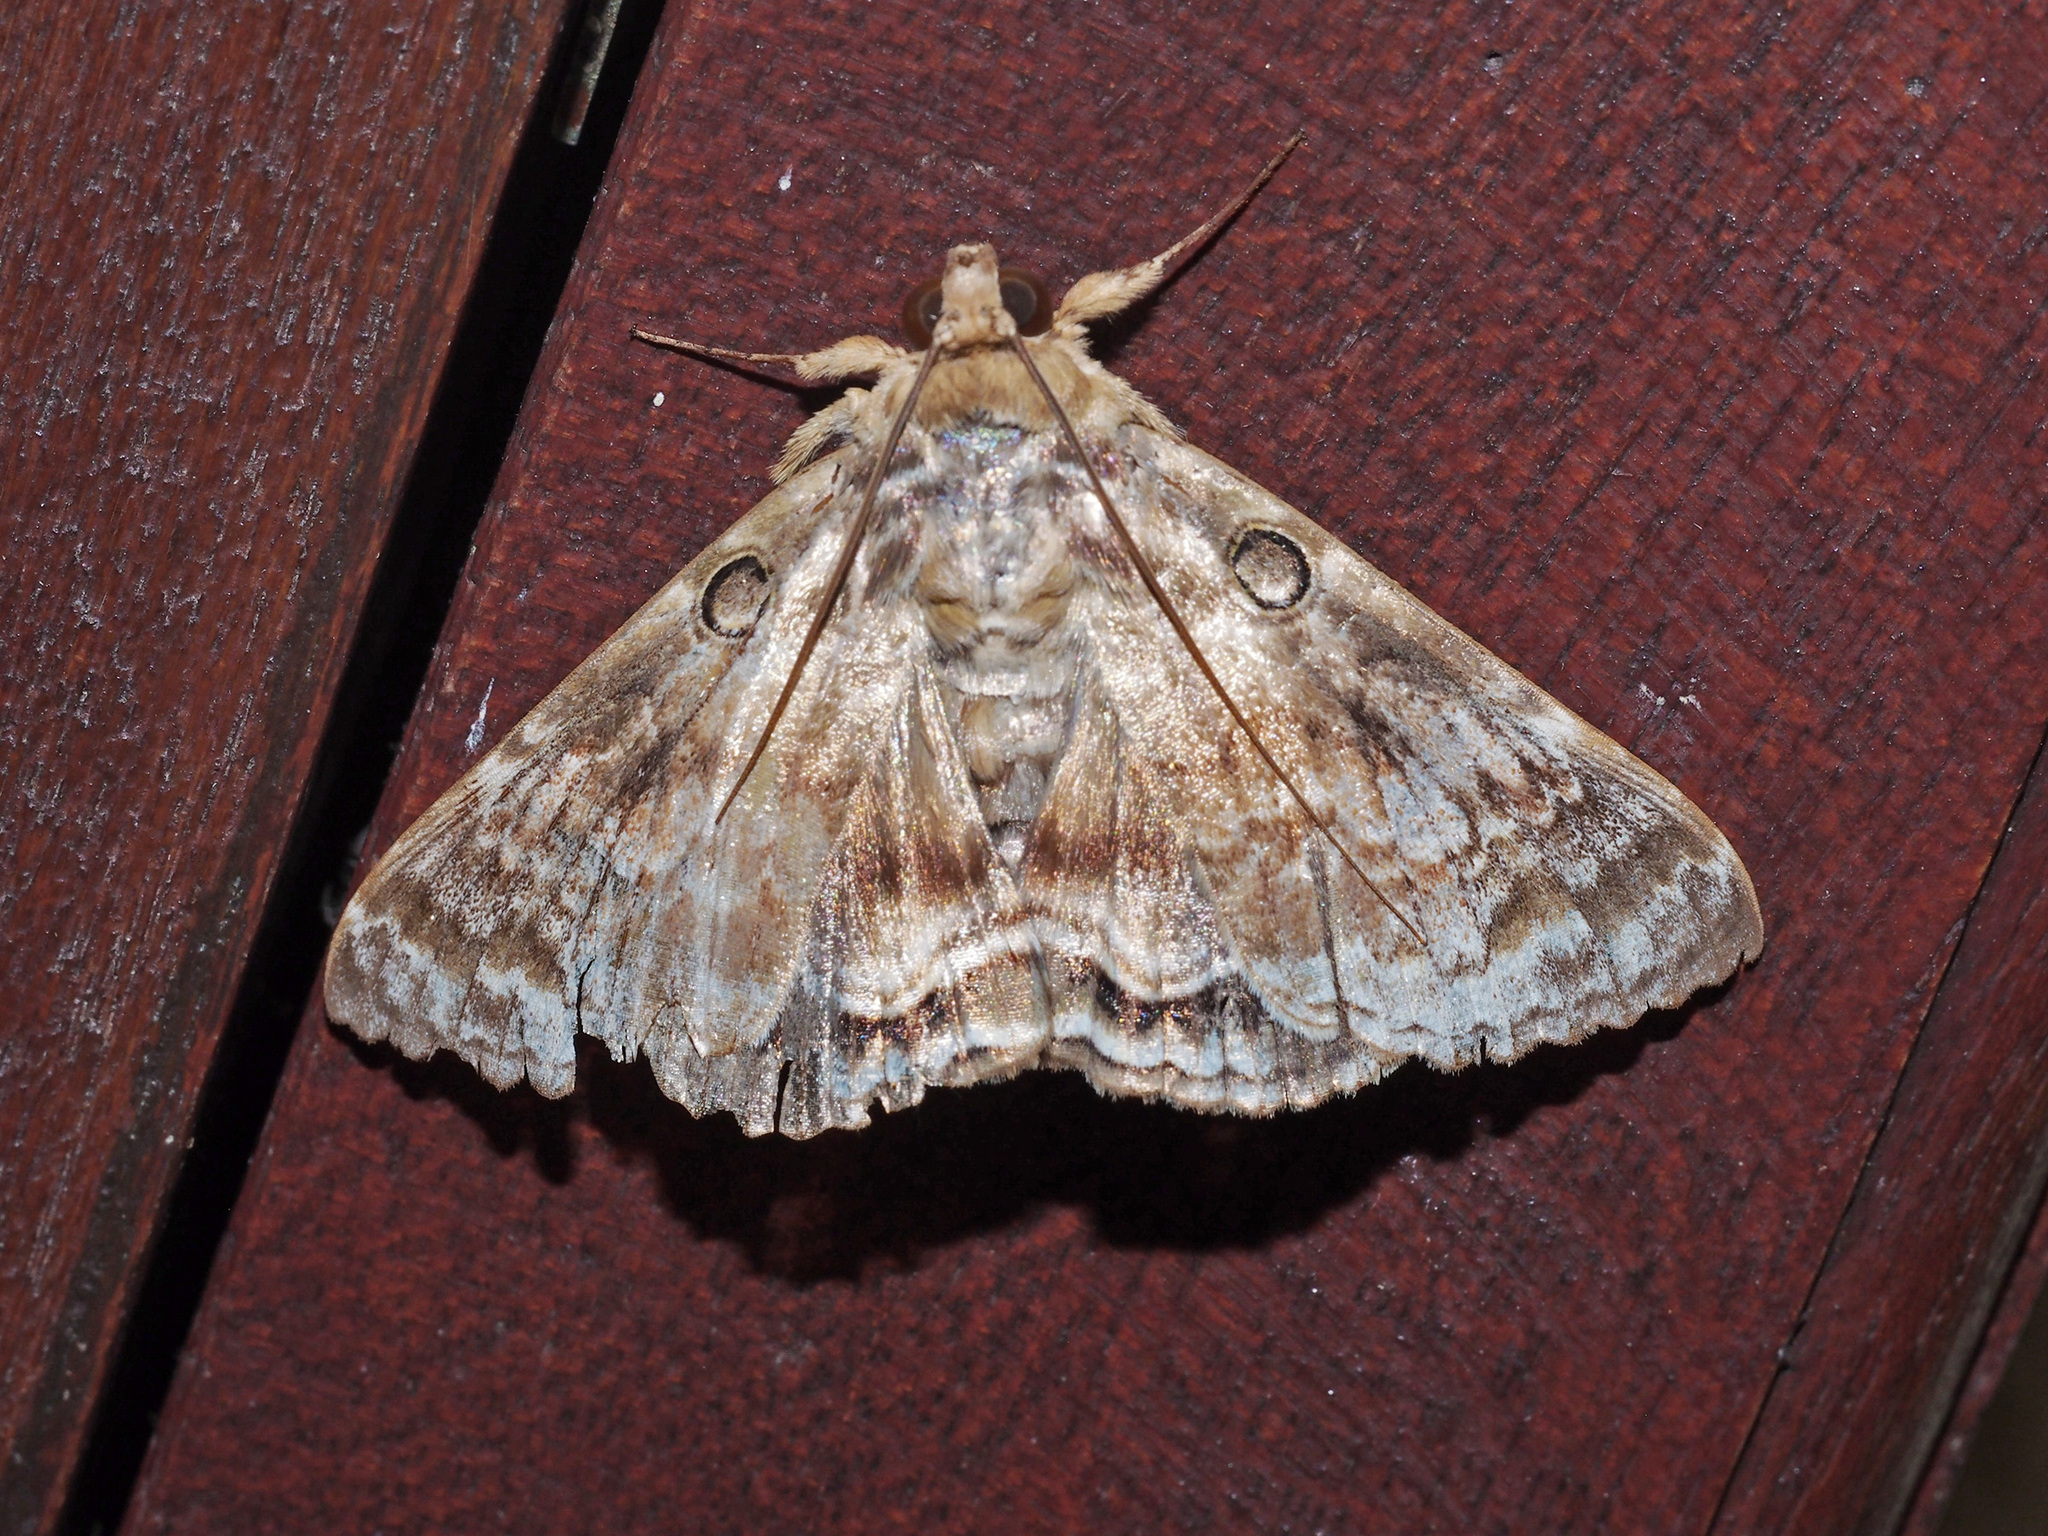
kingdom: Animalia
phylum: Arthropoda
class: Insecta
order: Lepidoptera
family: Erebidae
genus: Cyclodes
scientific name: Cyclodes omma
